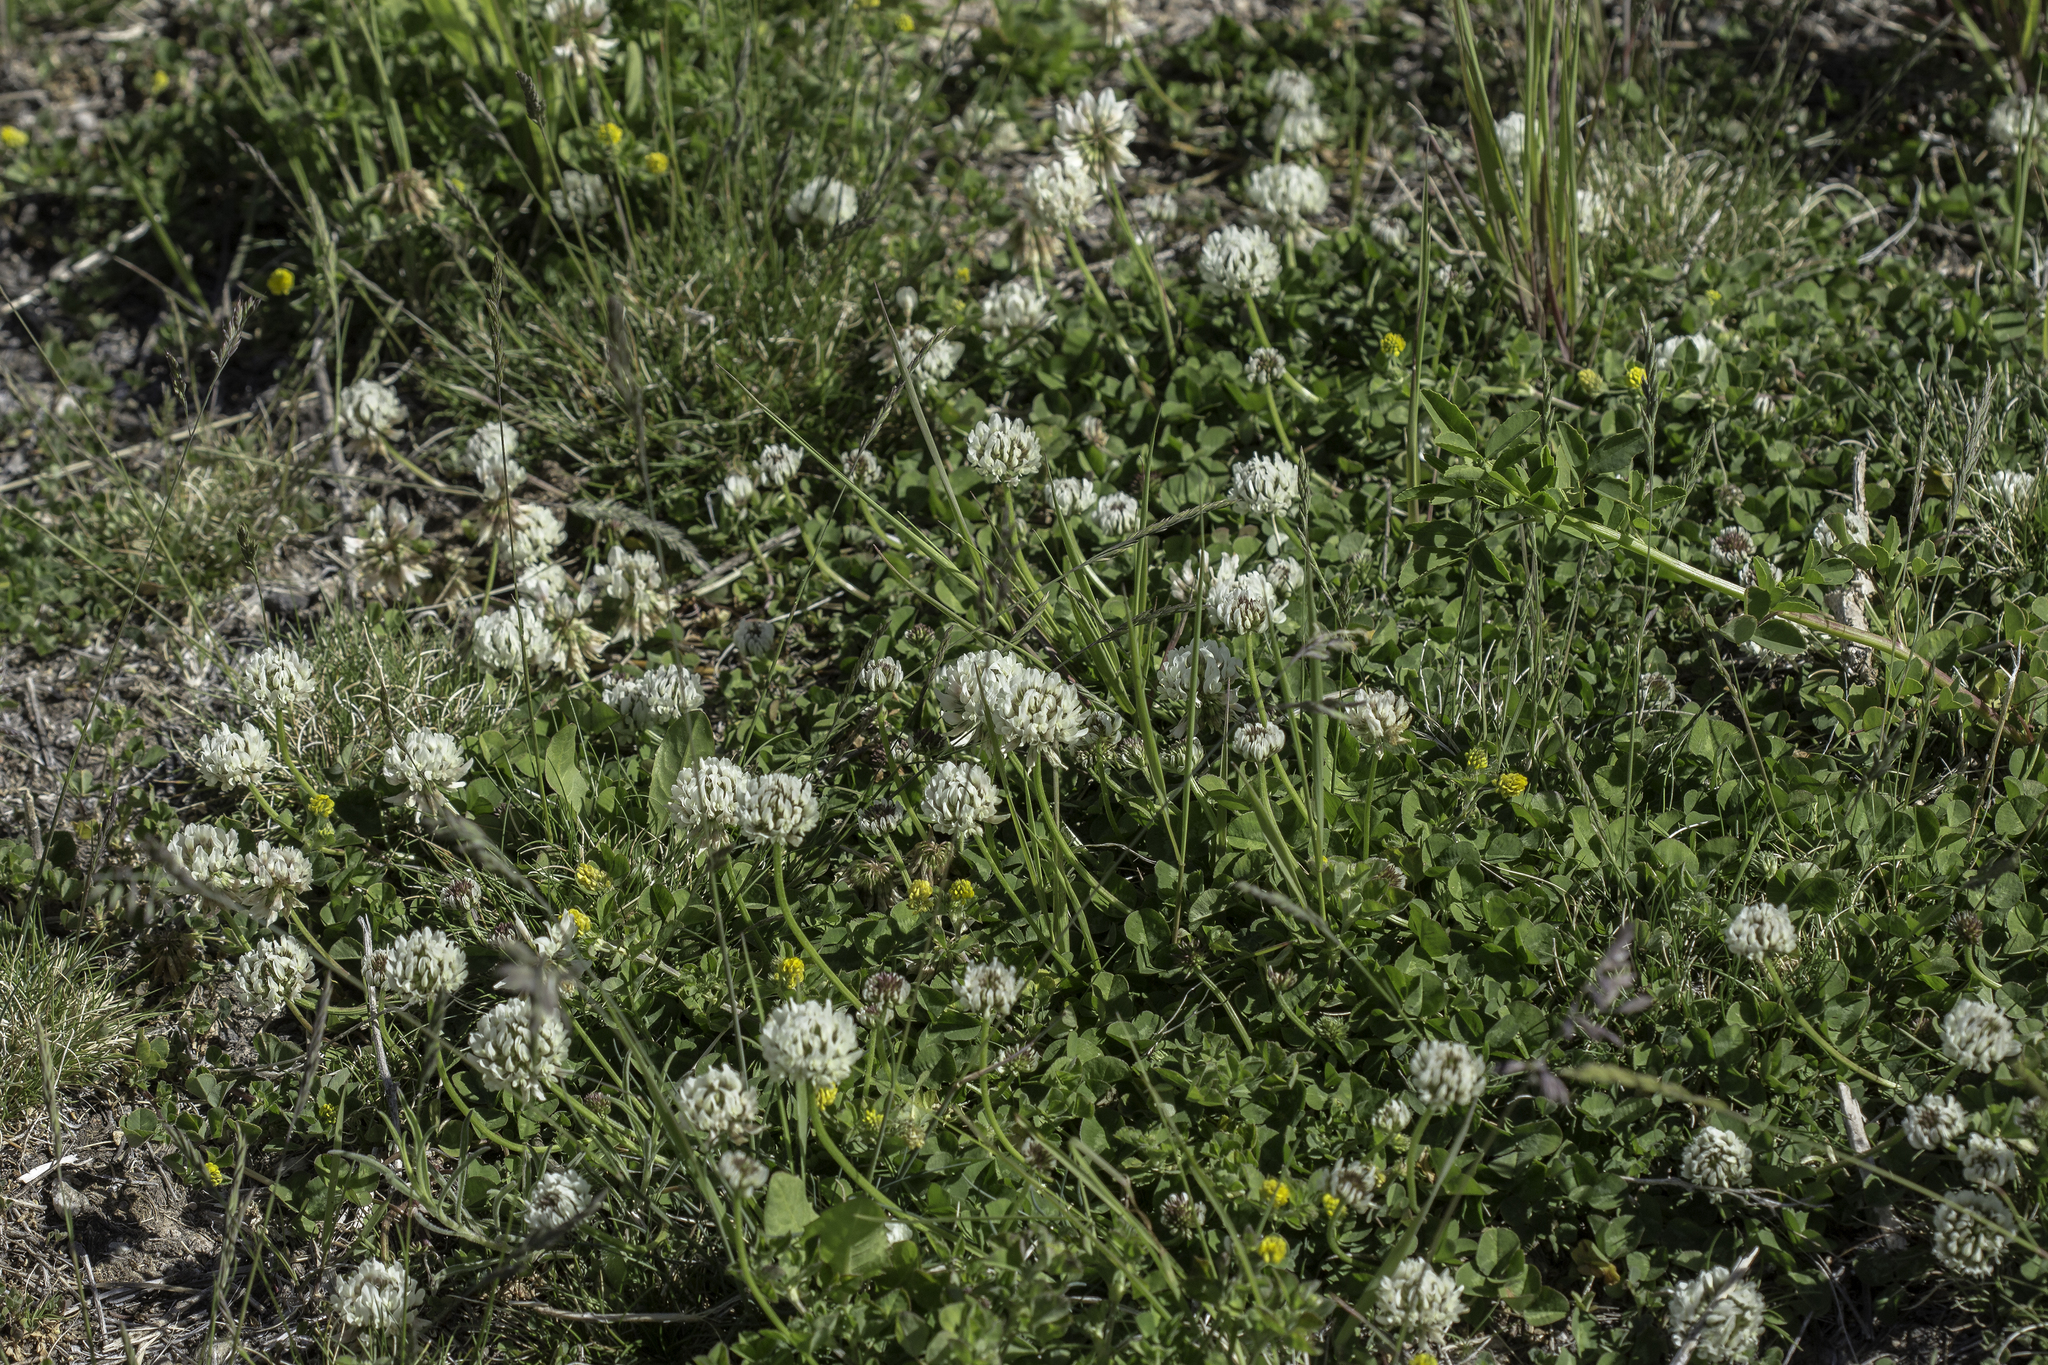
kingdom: Plantae
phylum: Tracheophyta
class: Magnoliopsida
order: Fabales
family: Fabaceae
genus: Trifolium
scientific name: Trifolium repens
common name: White clover
